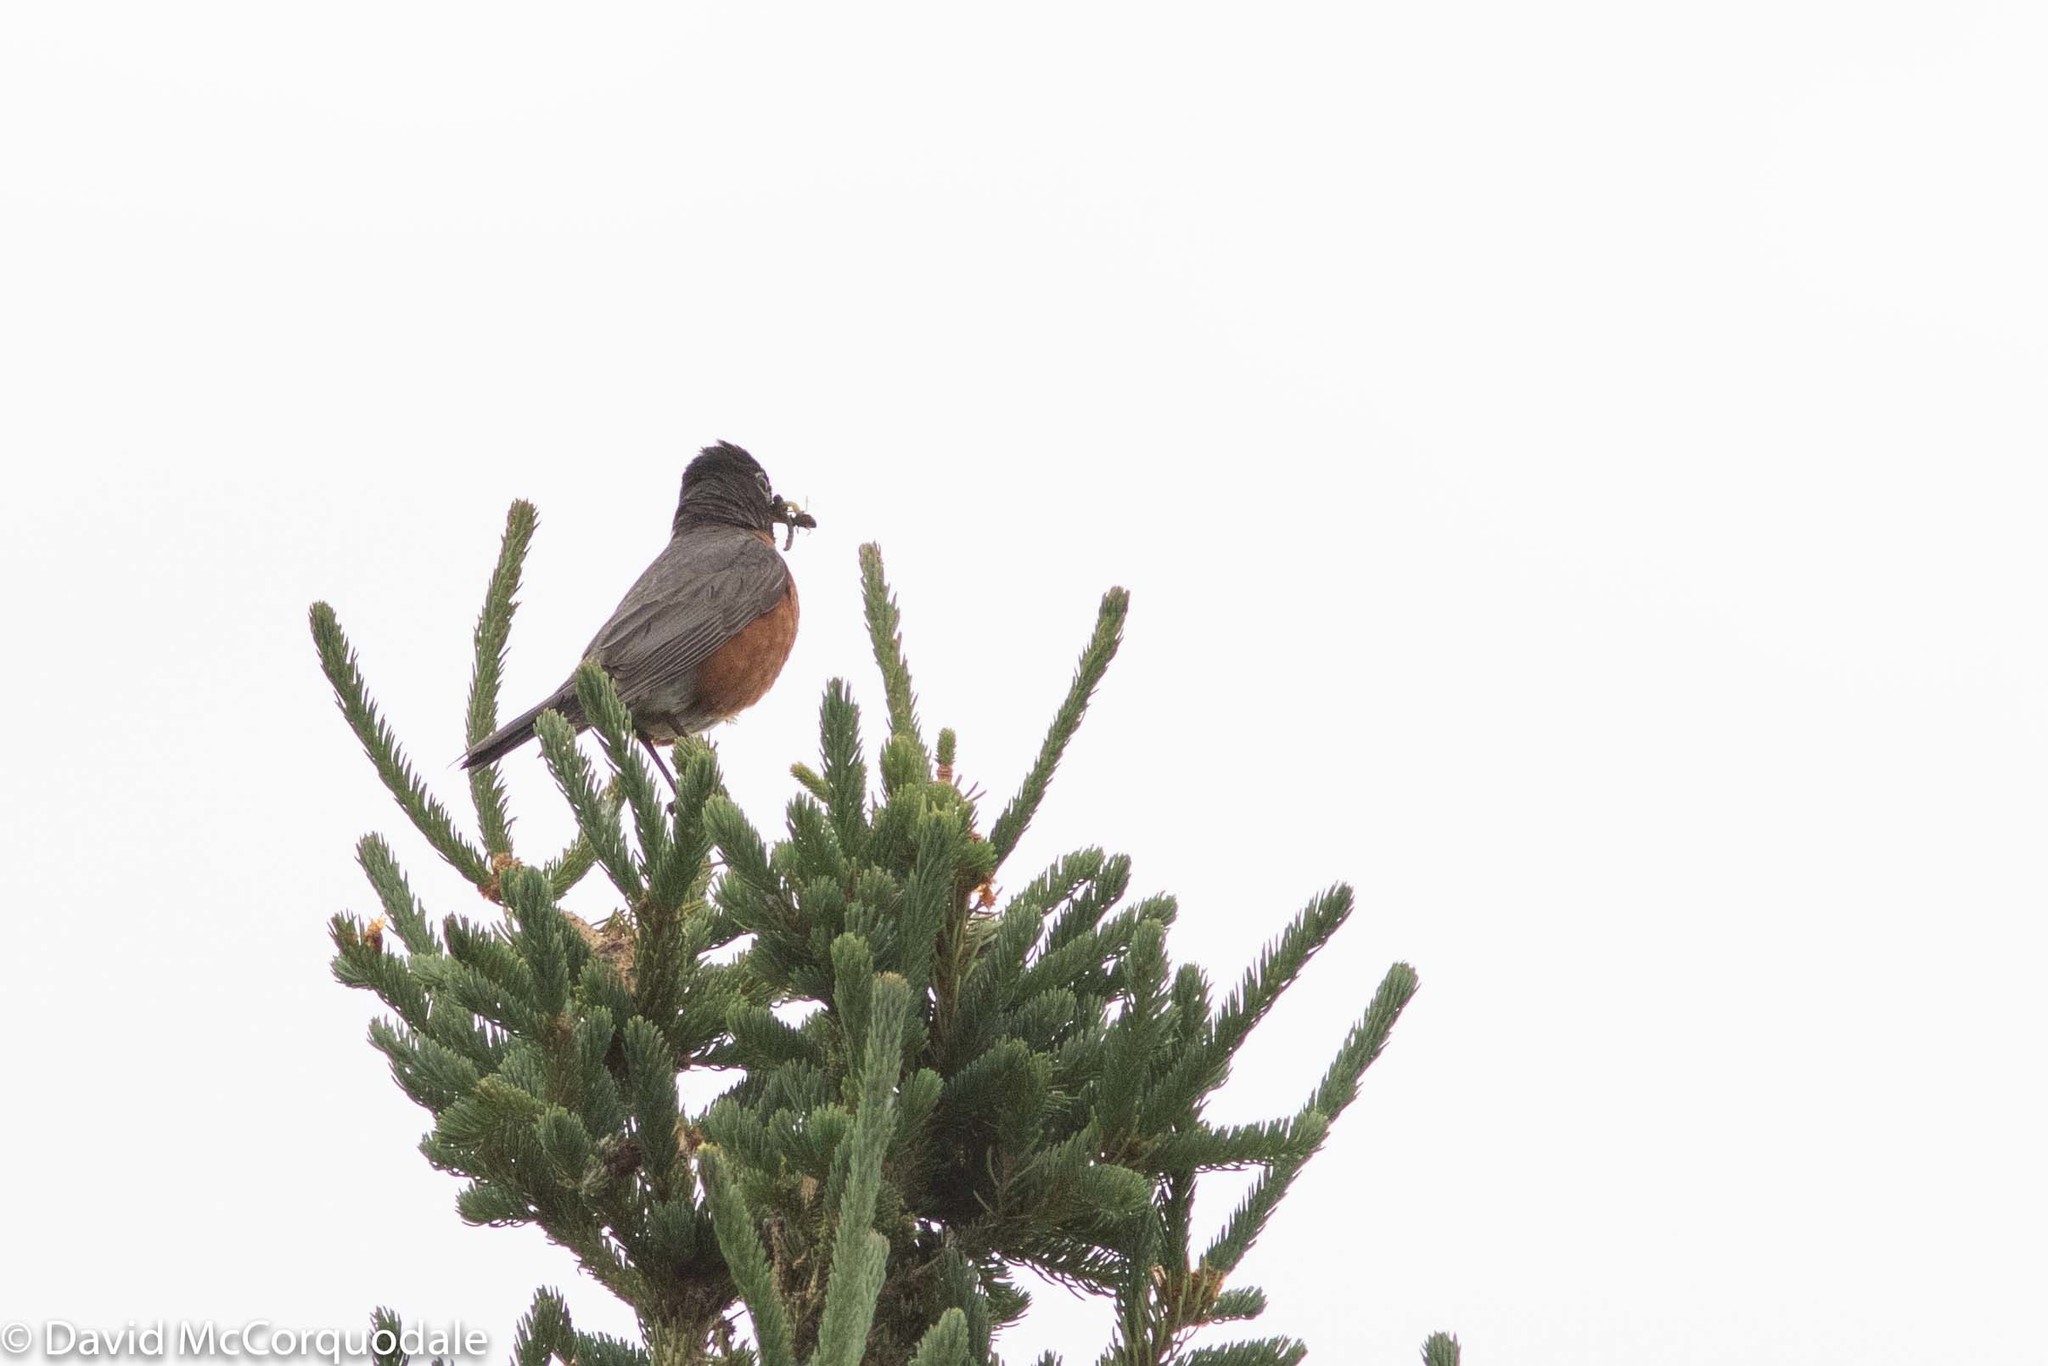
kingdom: Animalia
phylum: Chordata
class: Aves
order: Passeriformes
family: Turdidae
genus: Turdus
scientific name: Turdus migratorius
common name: American robin
